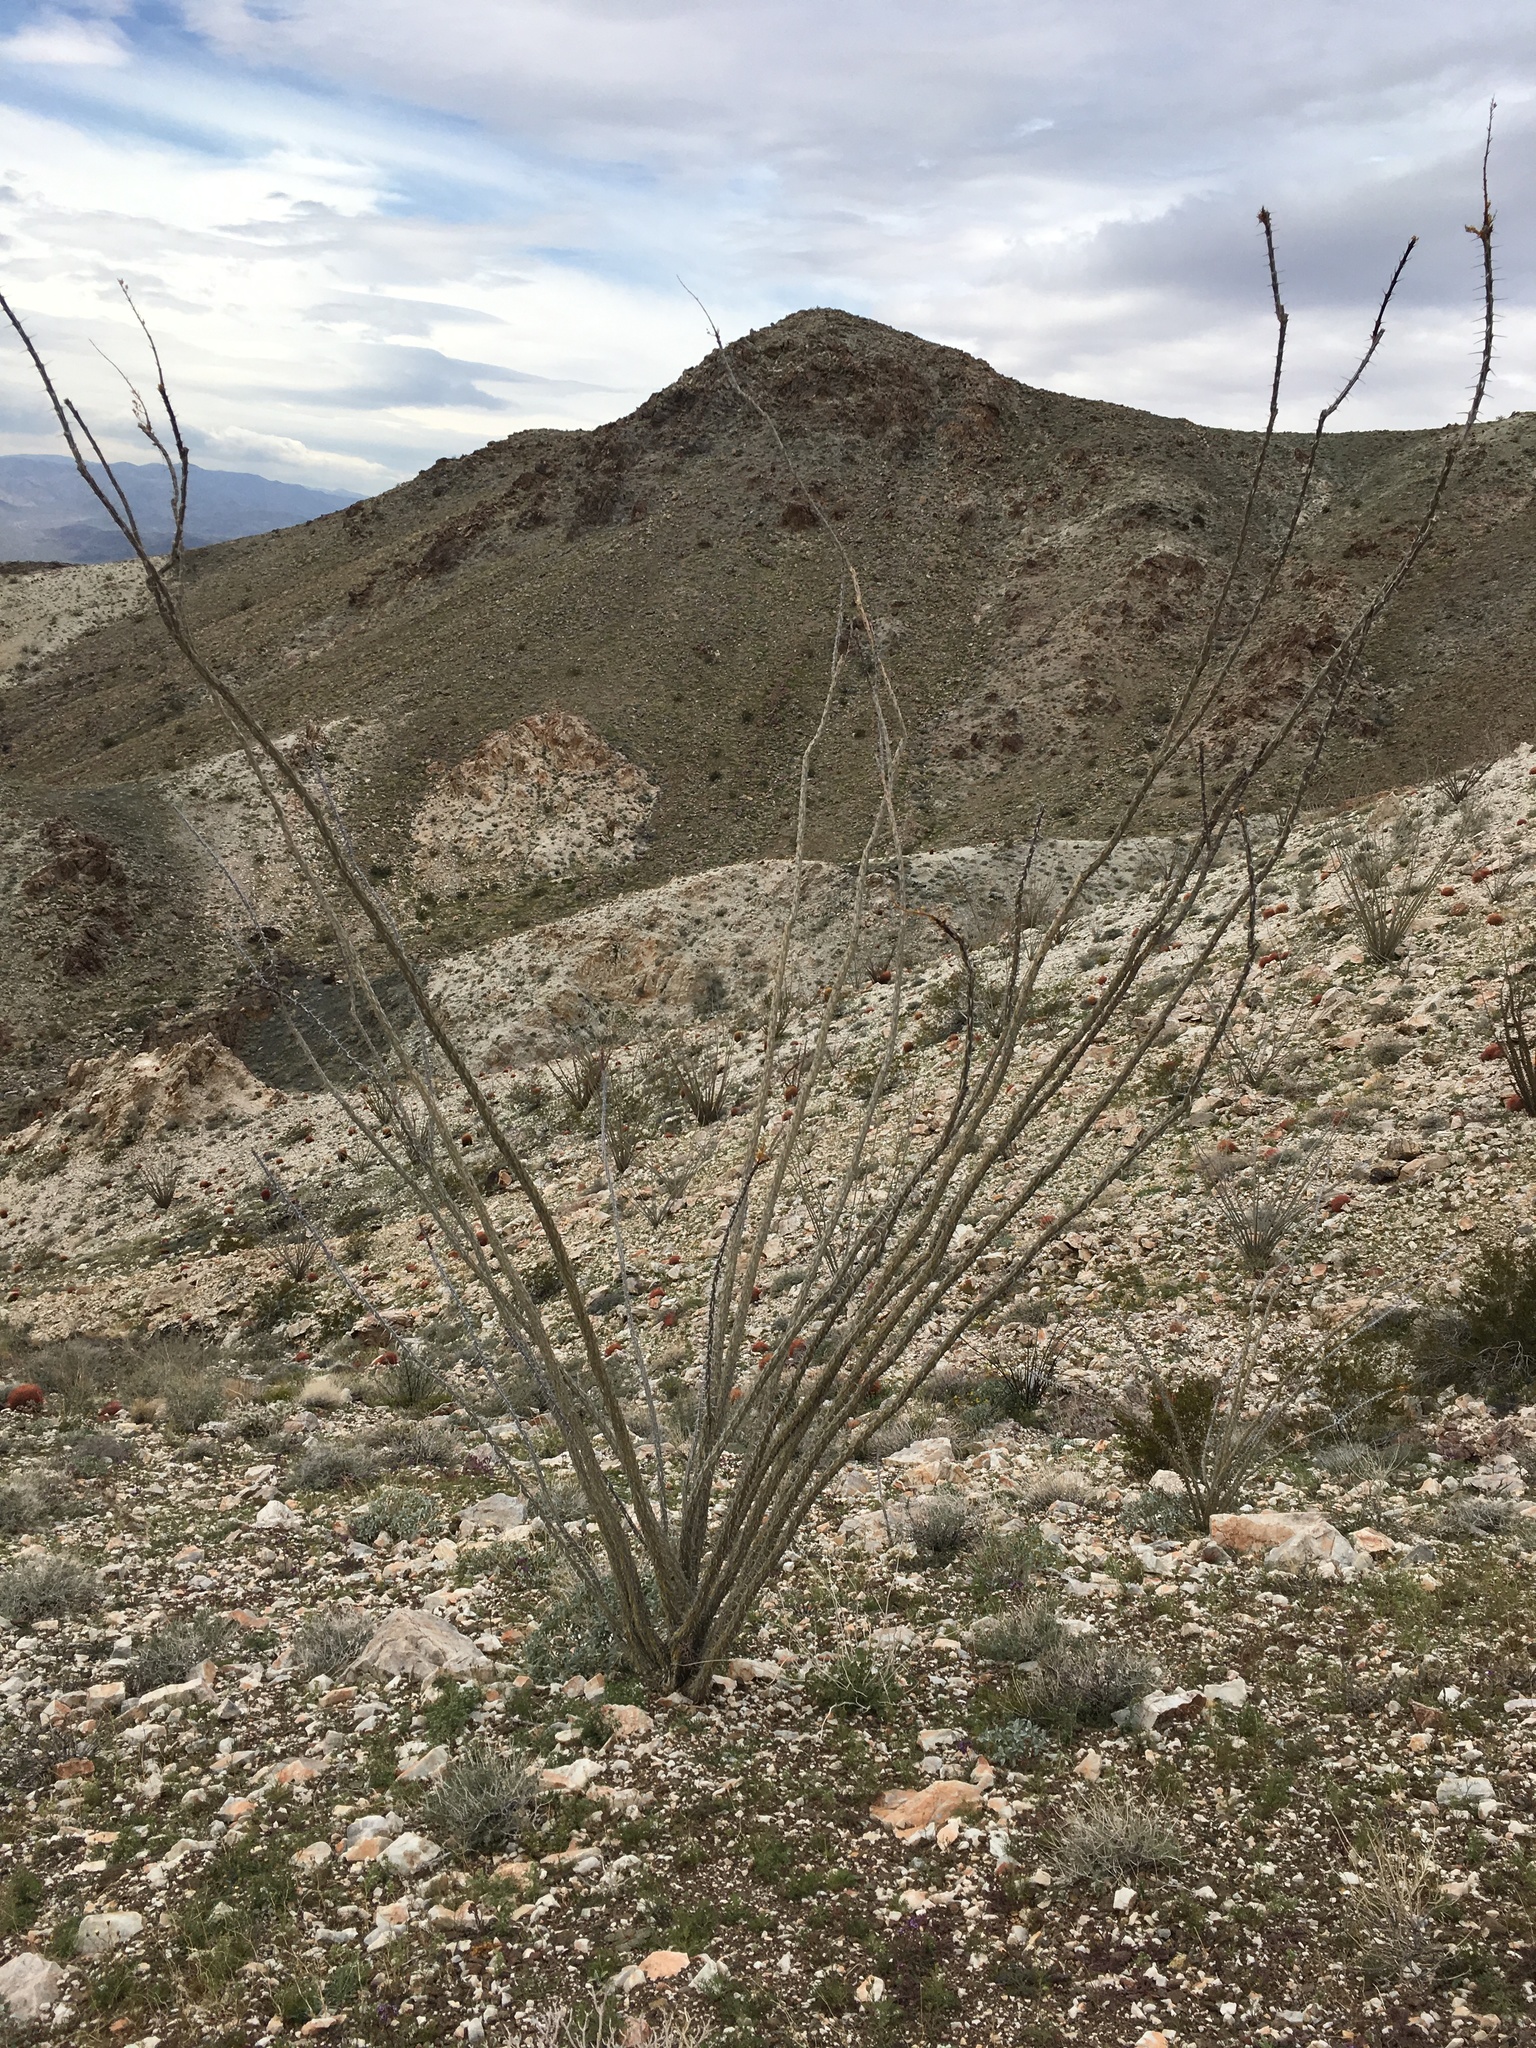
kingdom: Plantae
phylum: Tracheophyta
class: Magnoliopsida
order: Ericales
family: Fouquieriaceae
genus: Fouquieria
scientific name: Fouquieria splendens
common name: Vine-cactus
